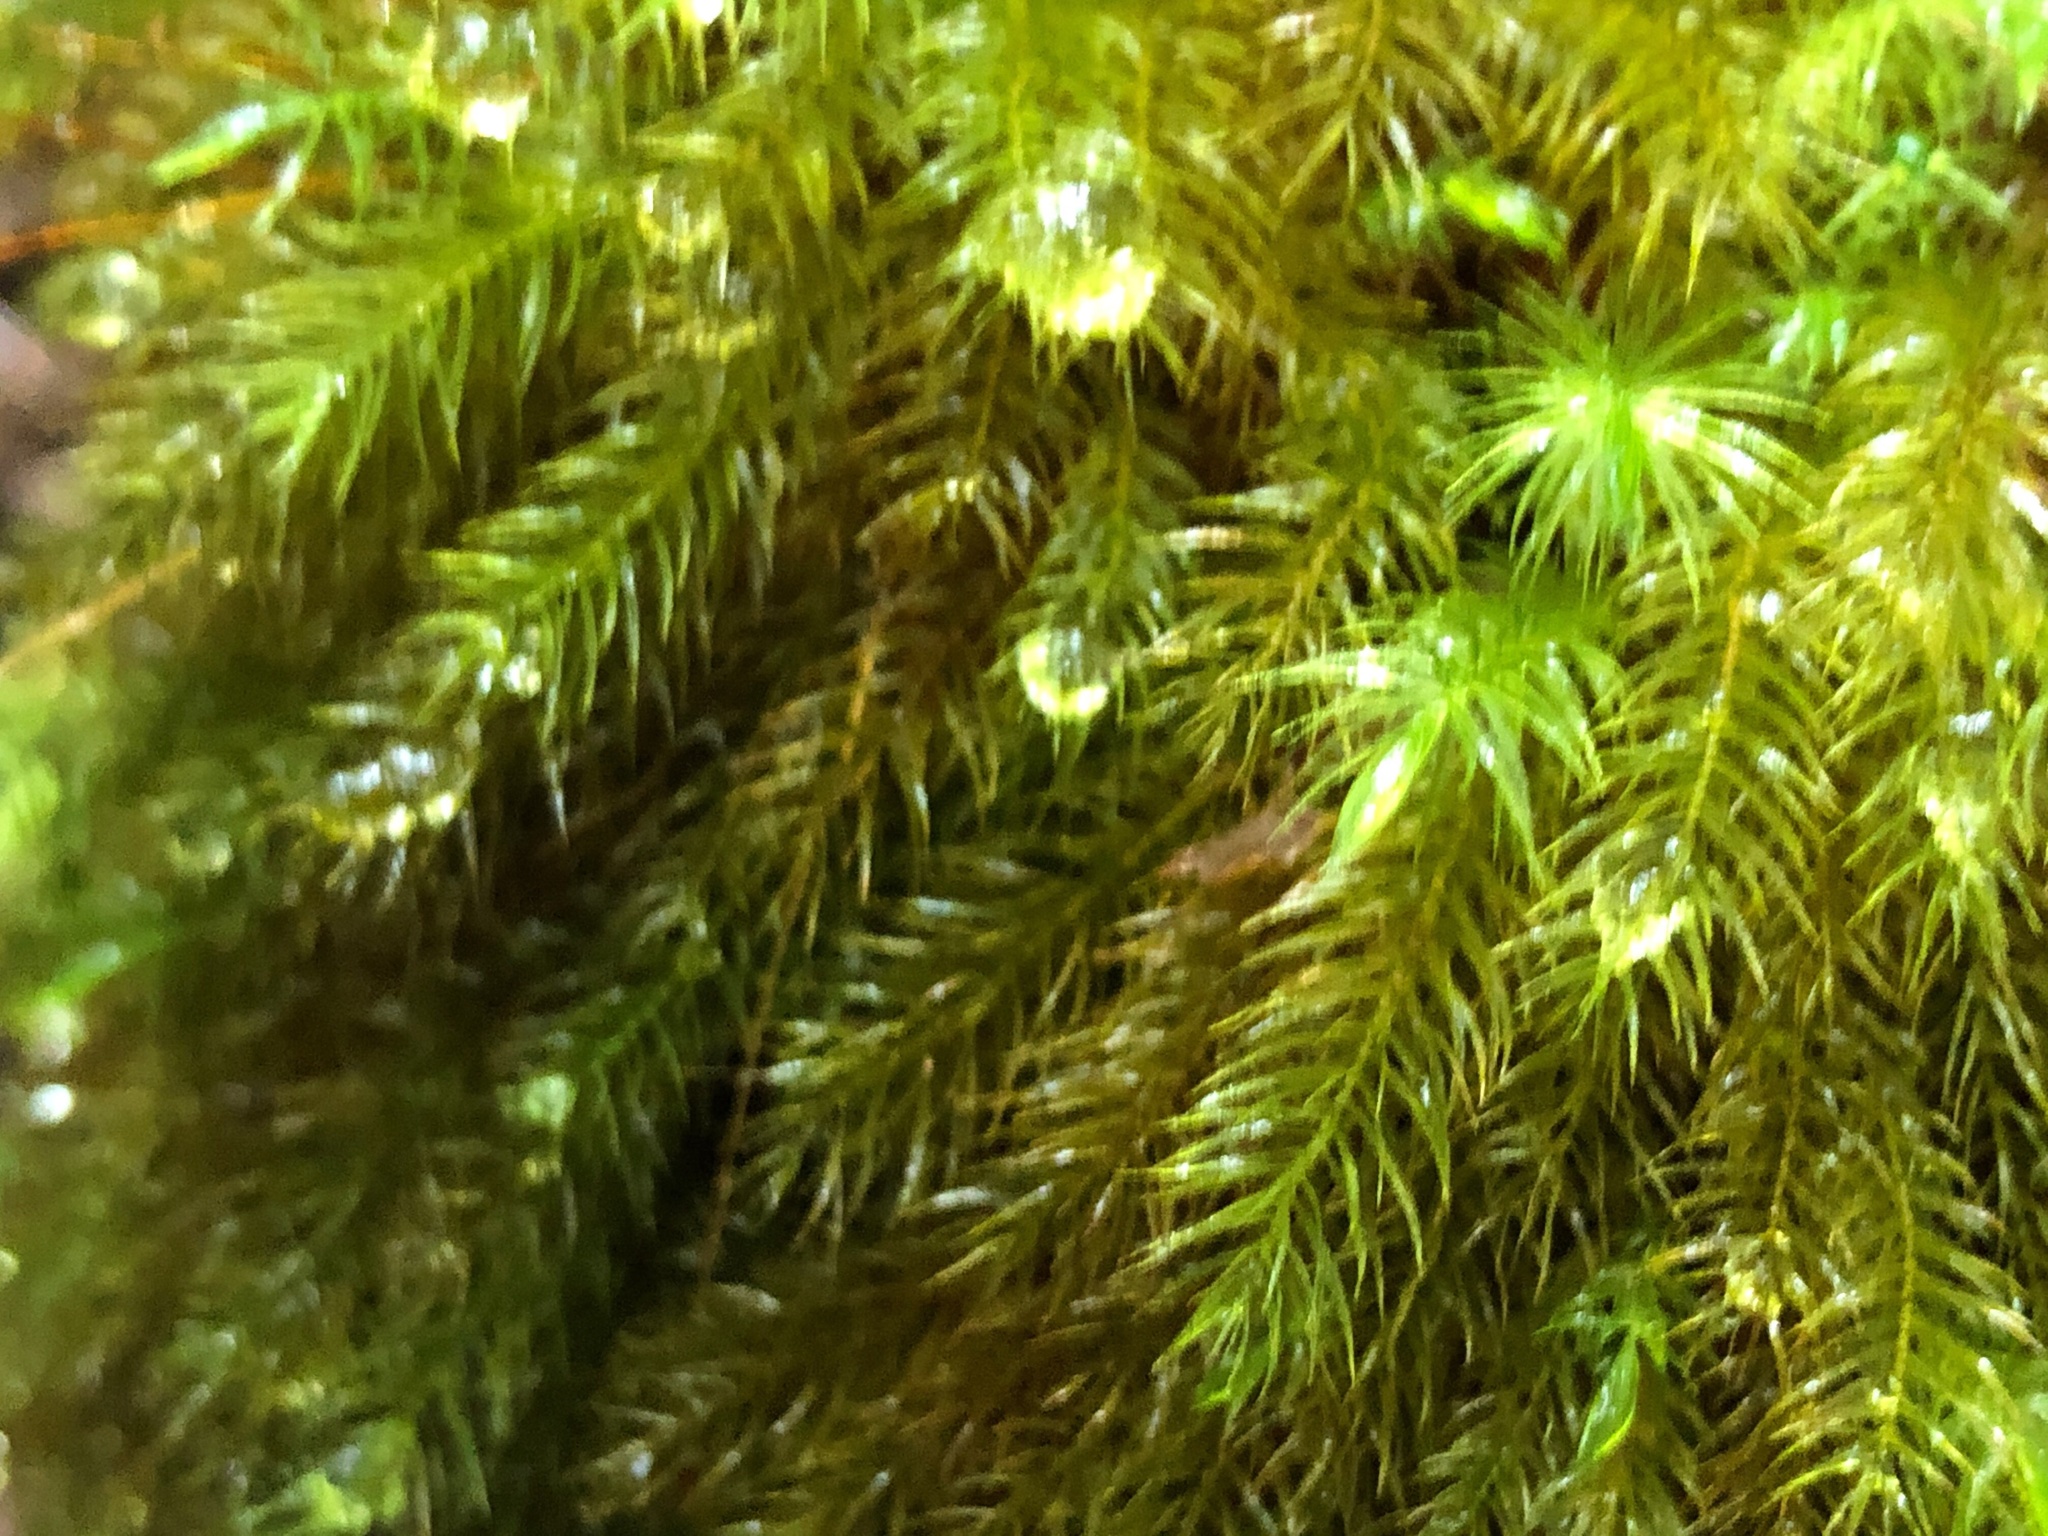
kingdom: Plantae
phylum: Bryophyta
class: Bryopsida
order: Rhizogoniales
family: Calomniaceae
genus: Pyrrhobryum
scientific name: Pyrrhobryum spiniforme
